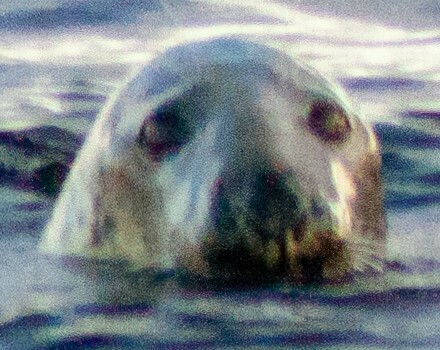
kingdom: Animalia
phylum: Chordata
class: Mammalia
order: Carnivora
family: Phocidae
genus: Halichoerus
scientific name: Halichoerus grypus
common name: Grey seal
